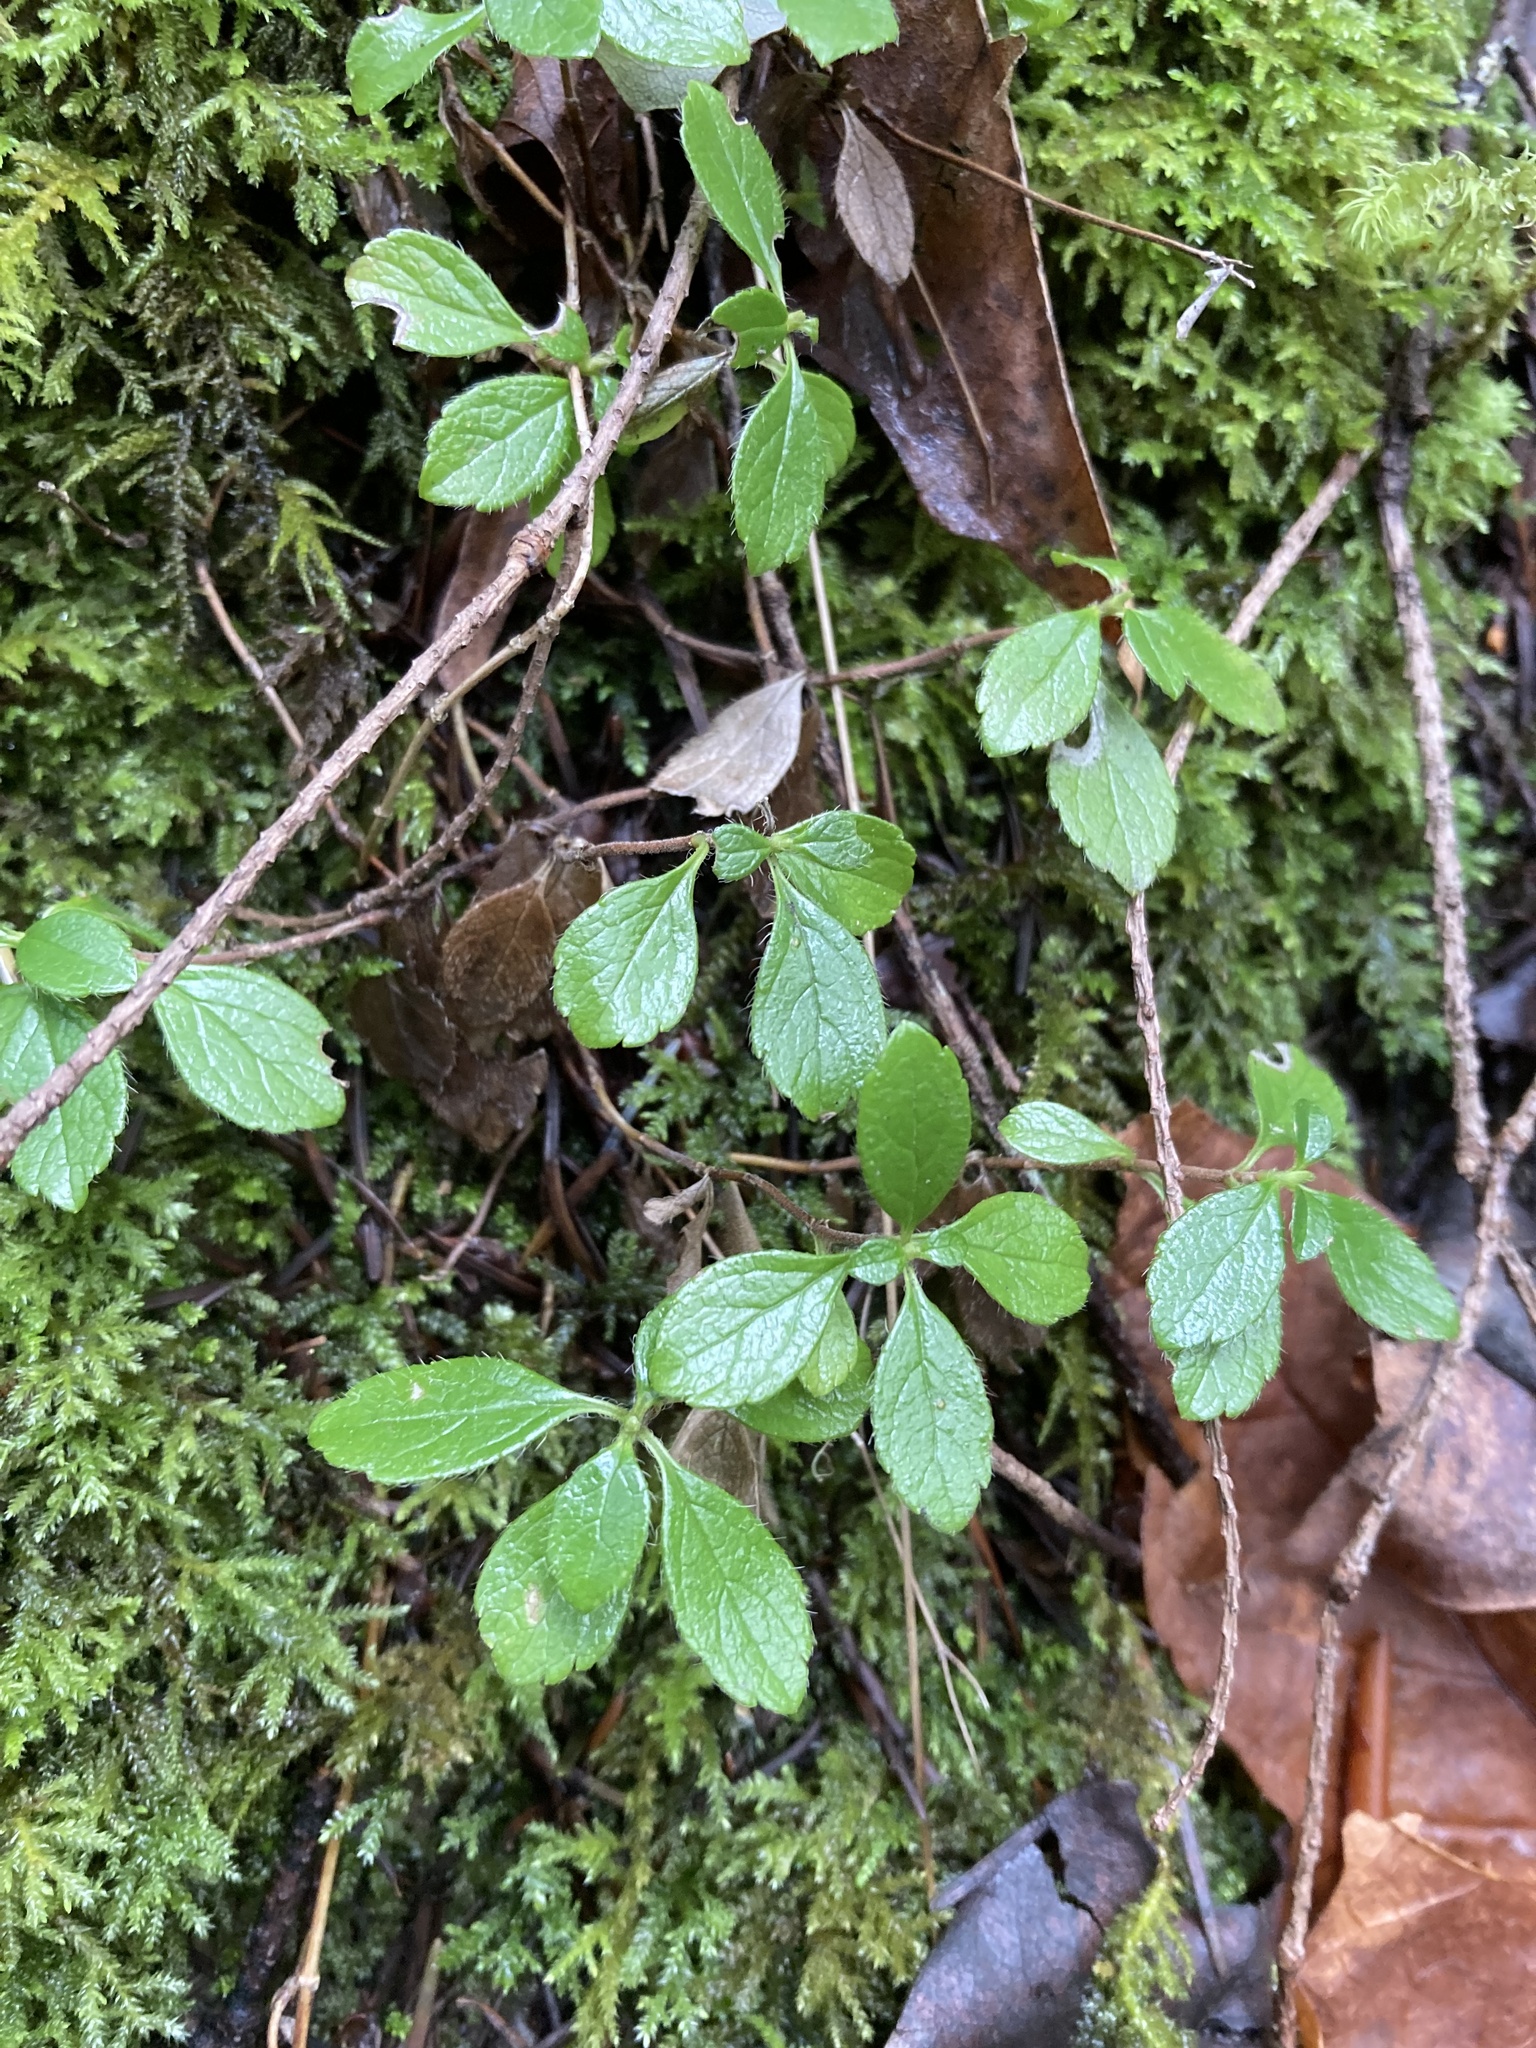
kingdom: Plantae
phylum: Tracheophyta
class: Magnoliopsida
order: Dipsacales
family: Caprifoliaceae
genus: Linnaea
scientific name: Linnaea borealis
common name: Twinflower
